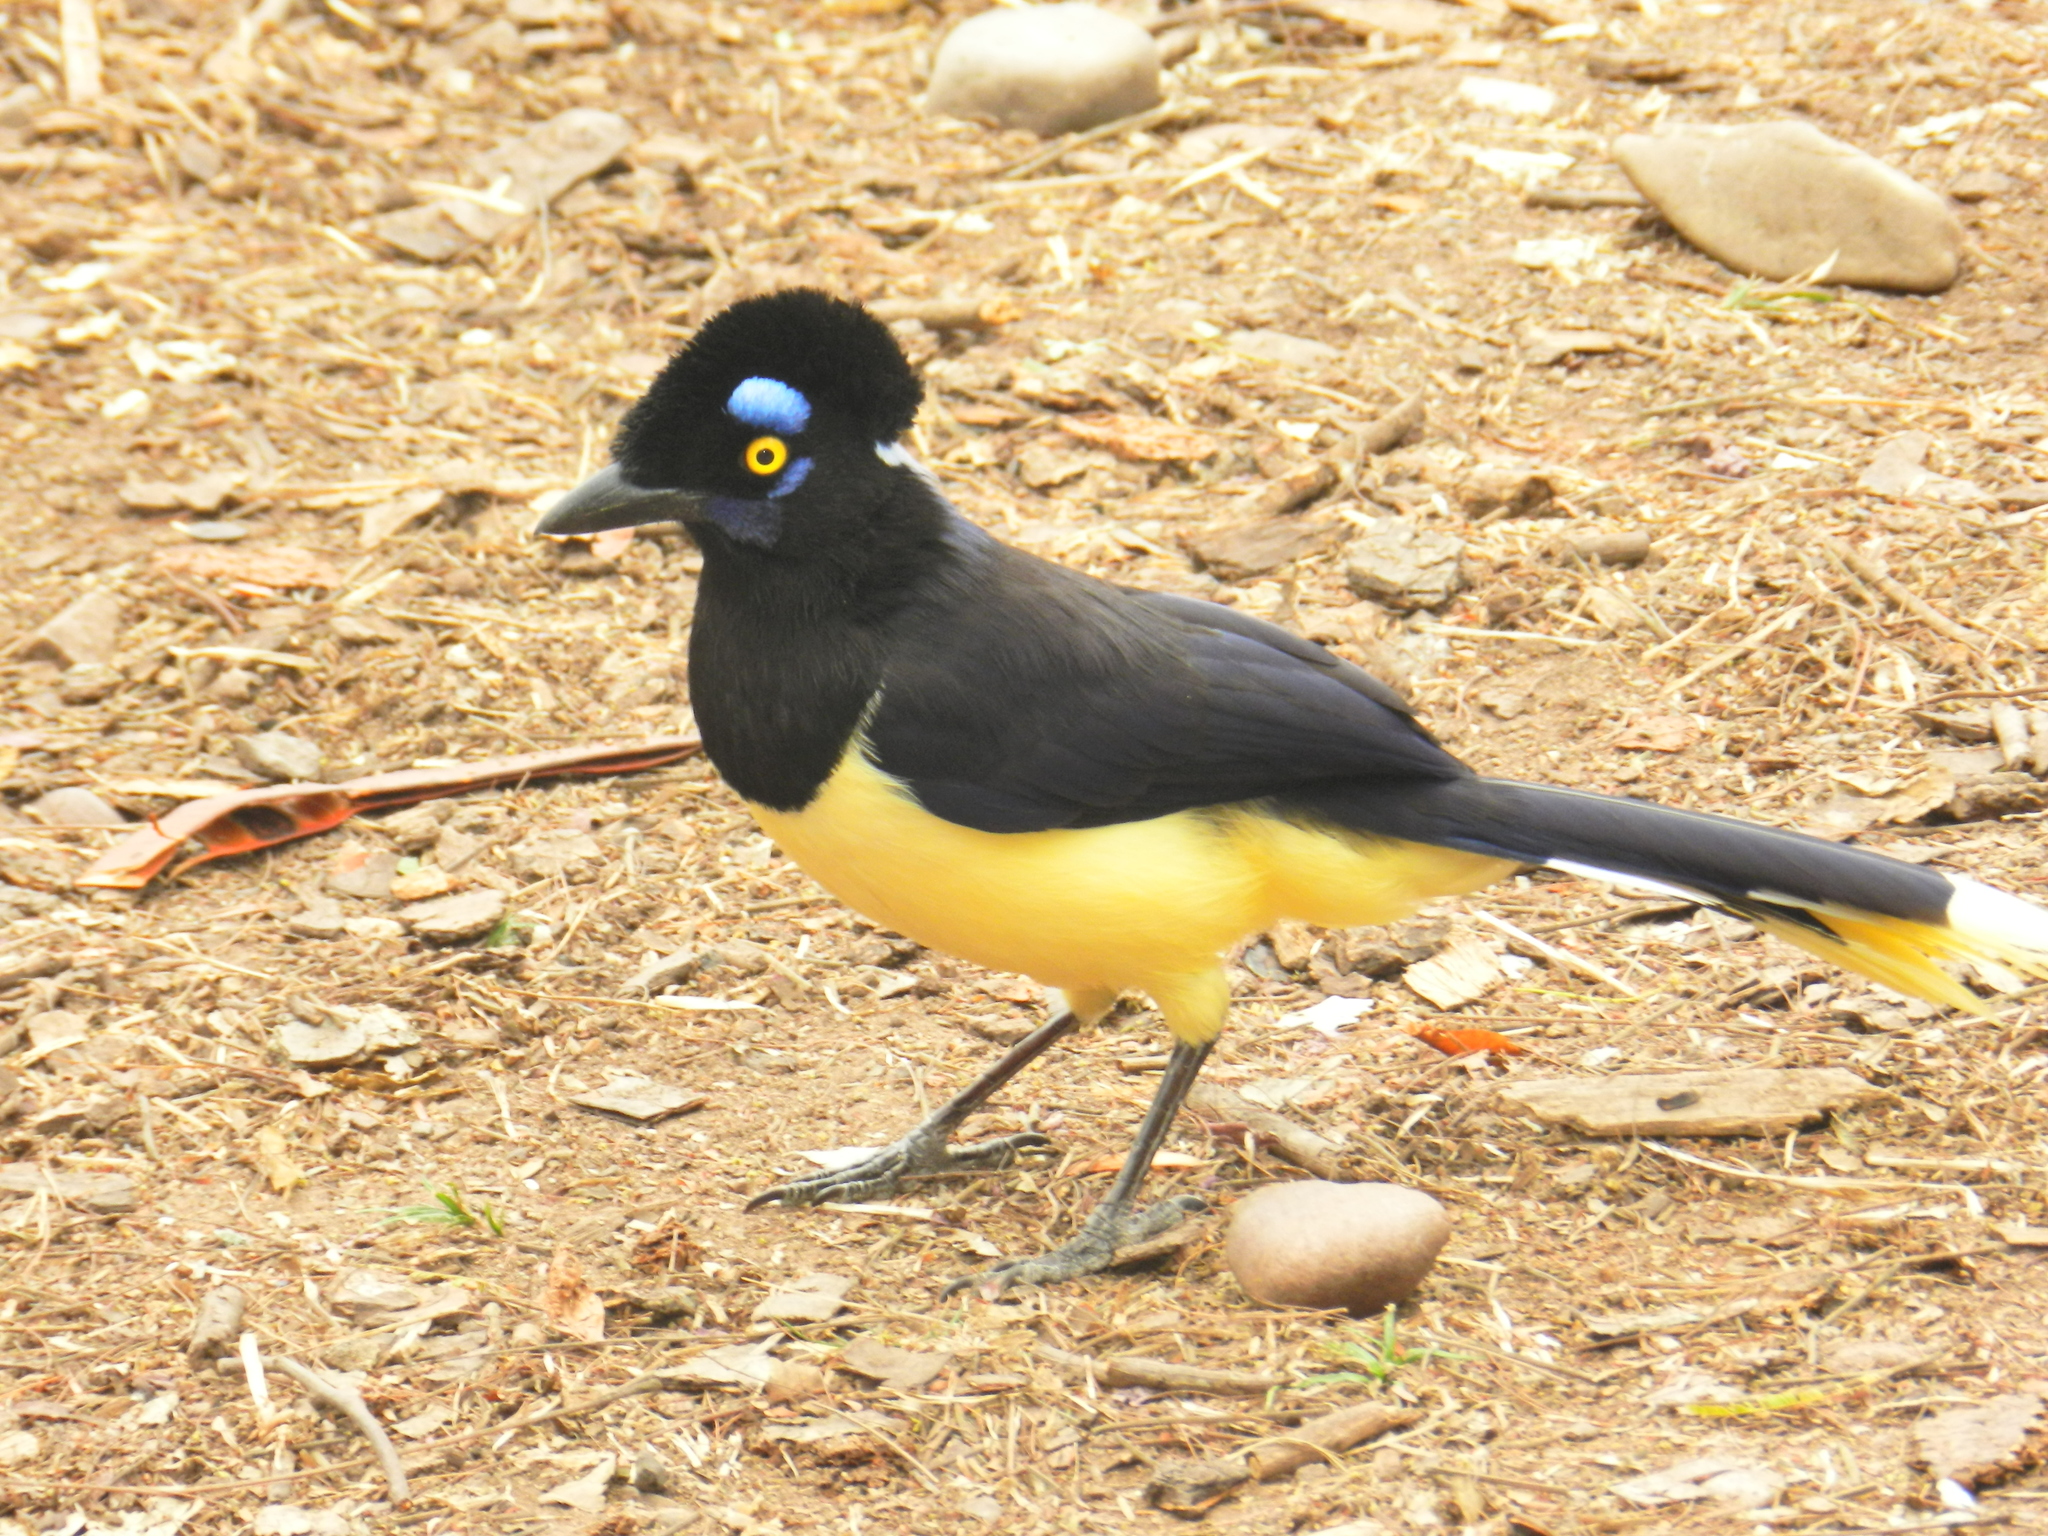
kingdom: Animalia
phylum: Chordata
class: Aves
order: Passeriformes
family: Corvidae
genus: Cyanocorax
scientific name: Cyanocorax chrysops
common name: Plush-crested jay
